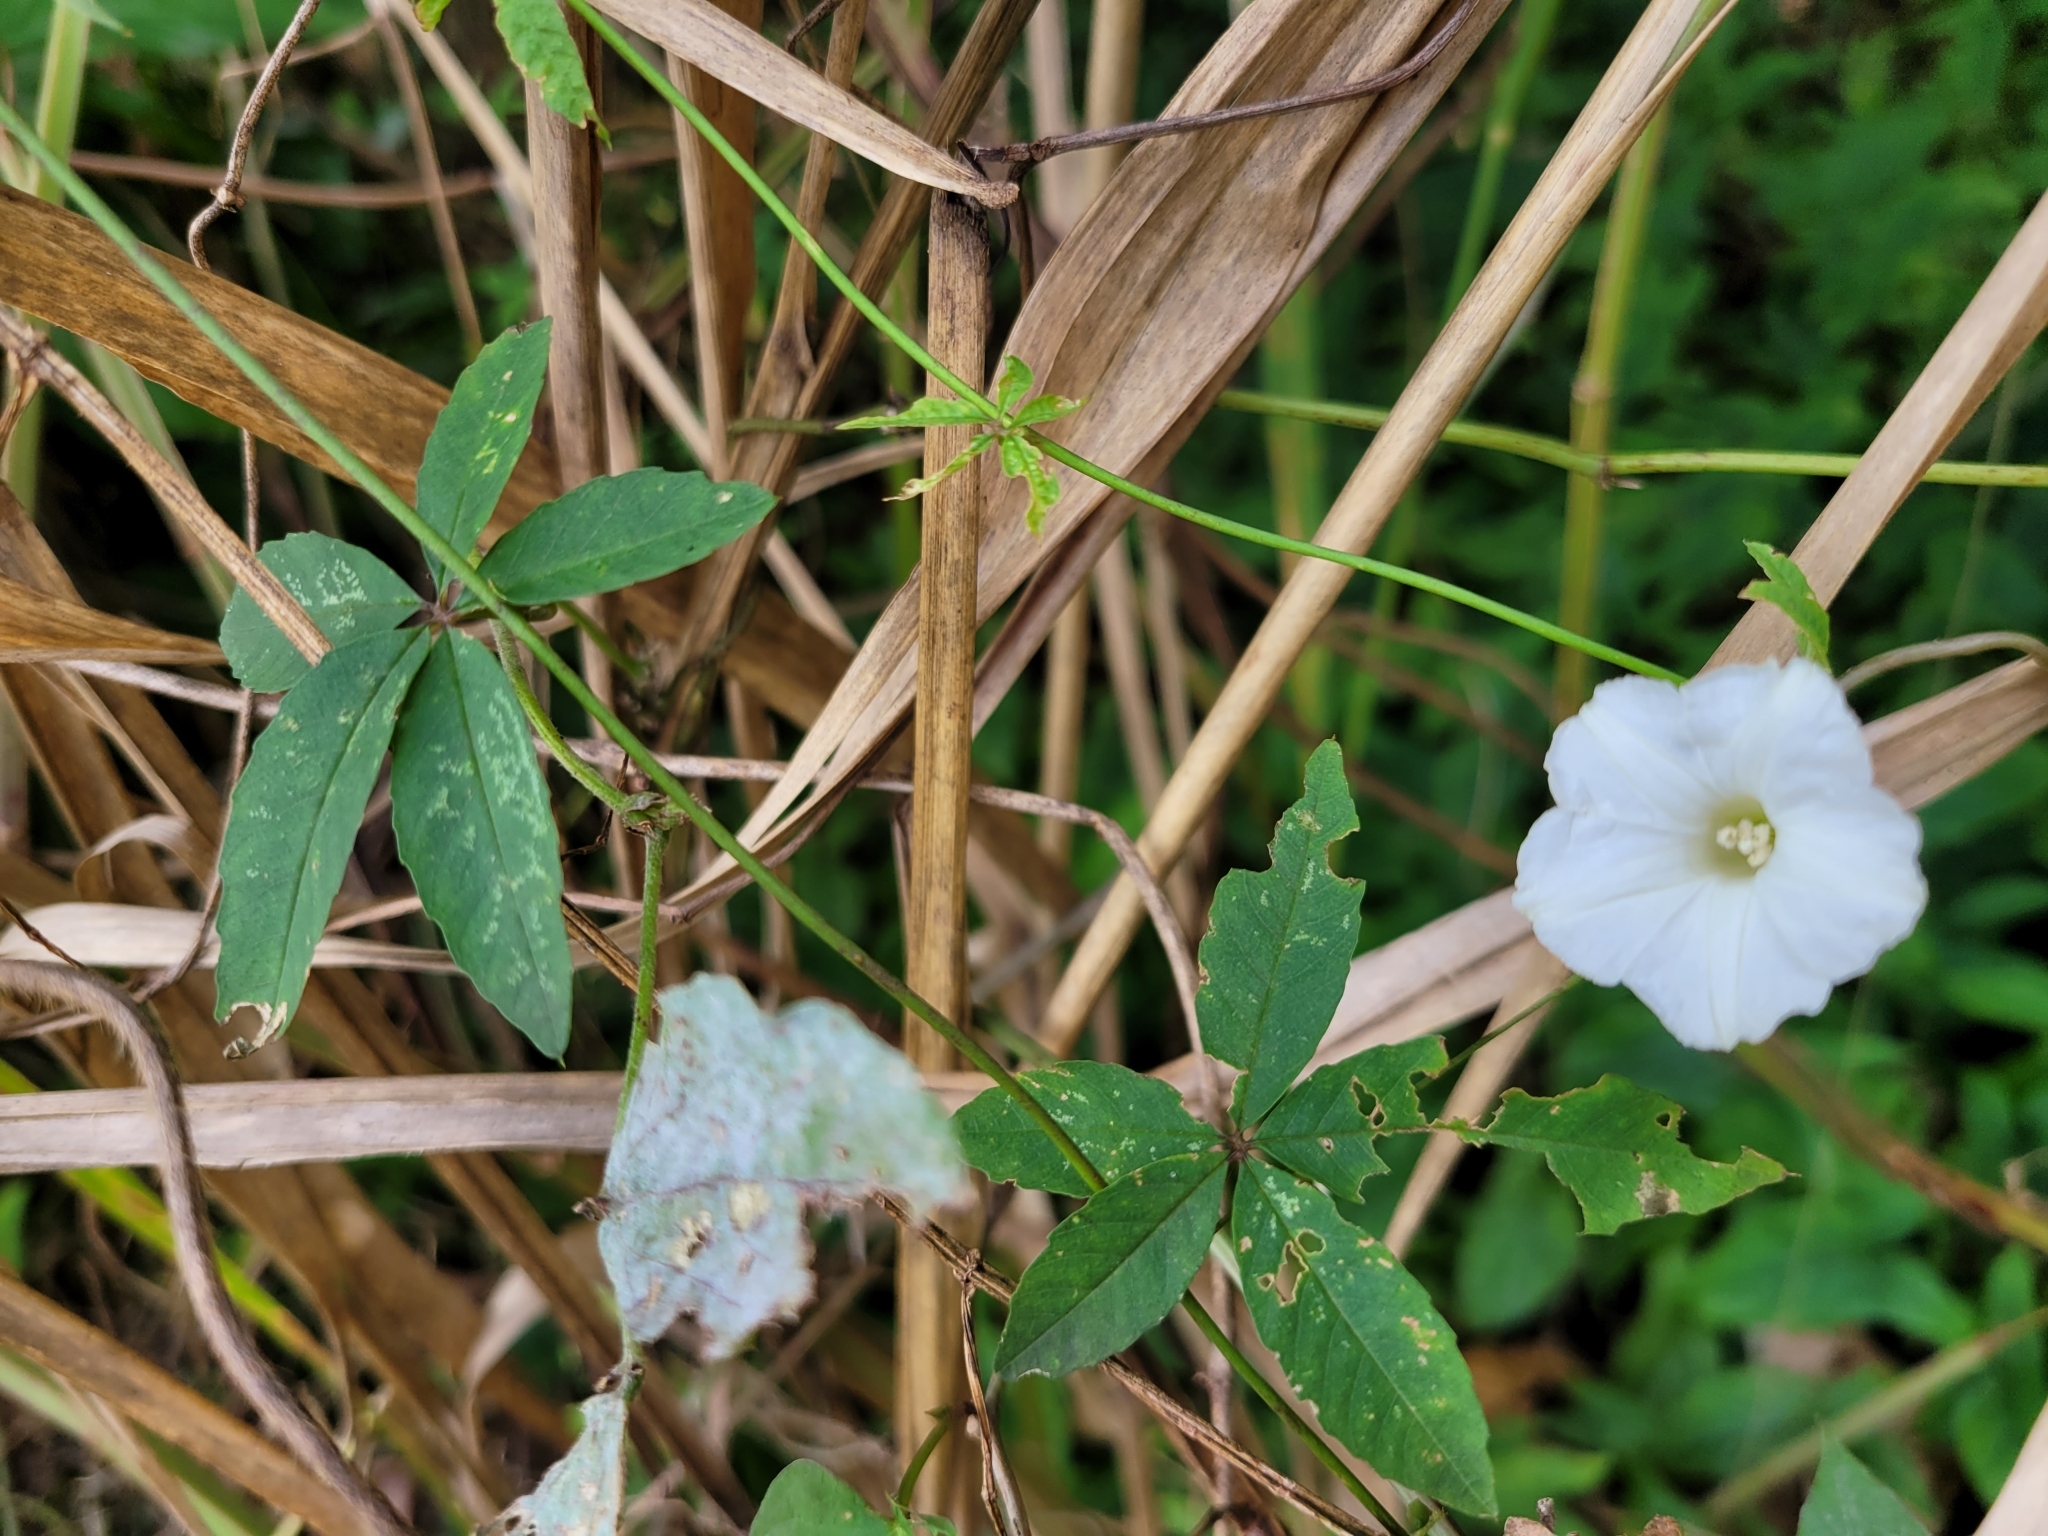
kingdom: Plantae
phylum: Tracheophyta
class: Magnoliopsida
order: Solanales
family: Convolvulaceae
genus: Distimake
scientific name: Distimake quinquefolius
